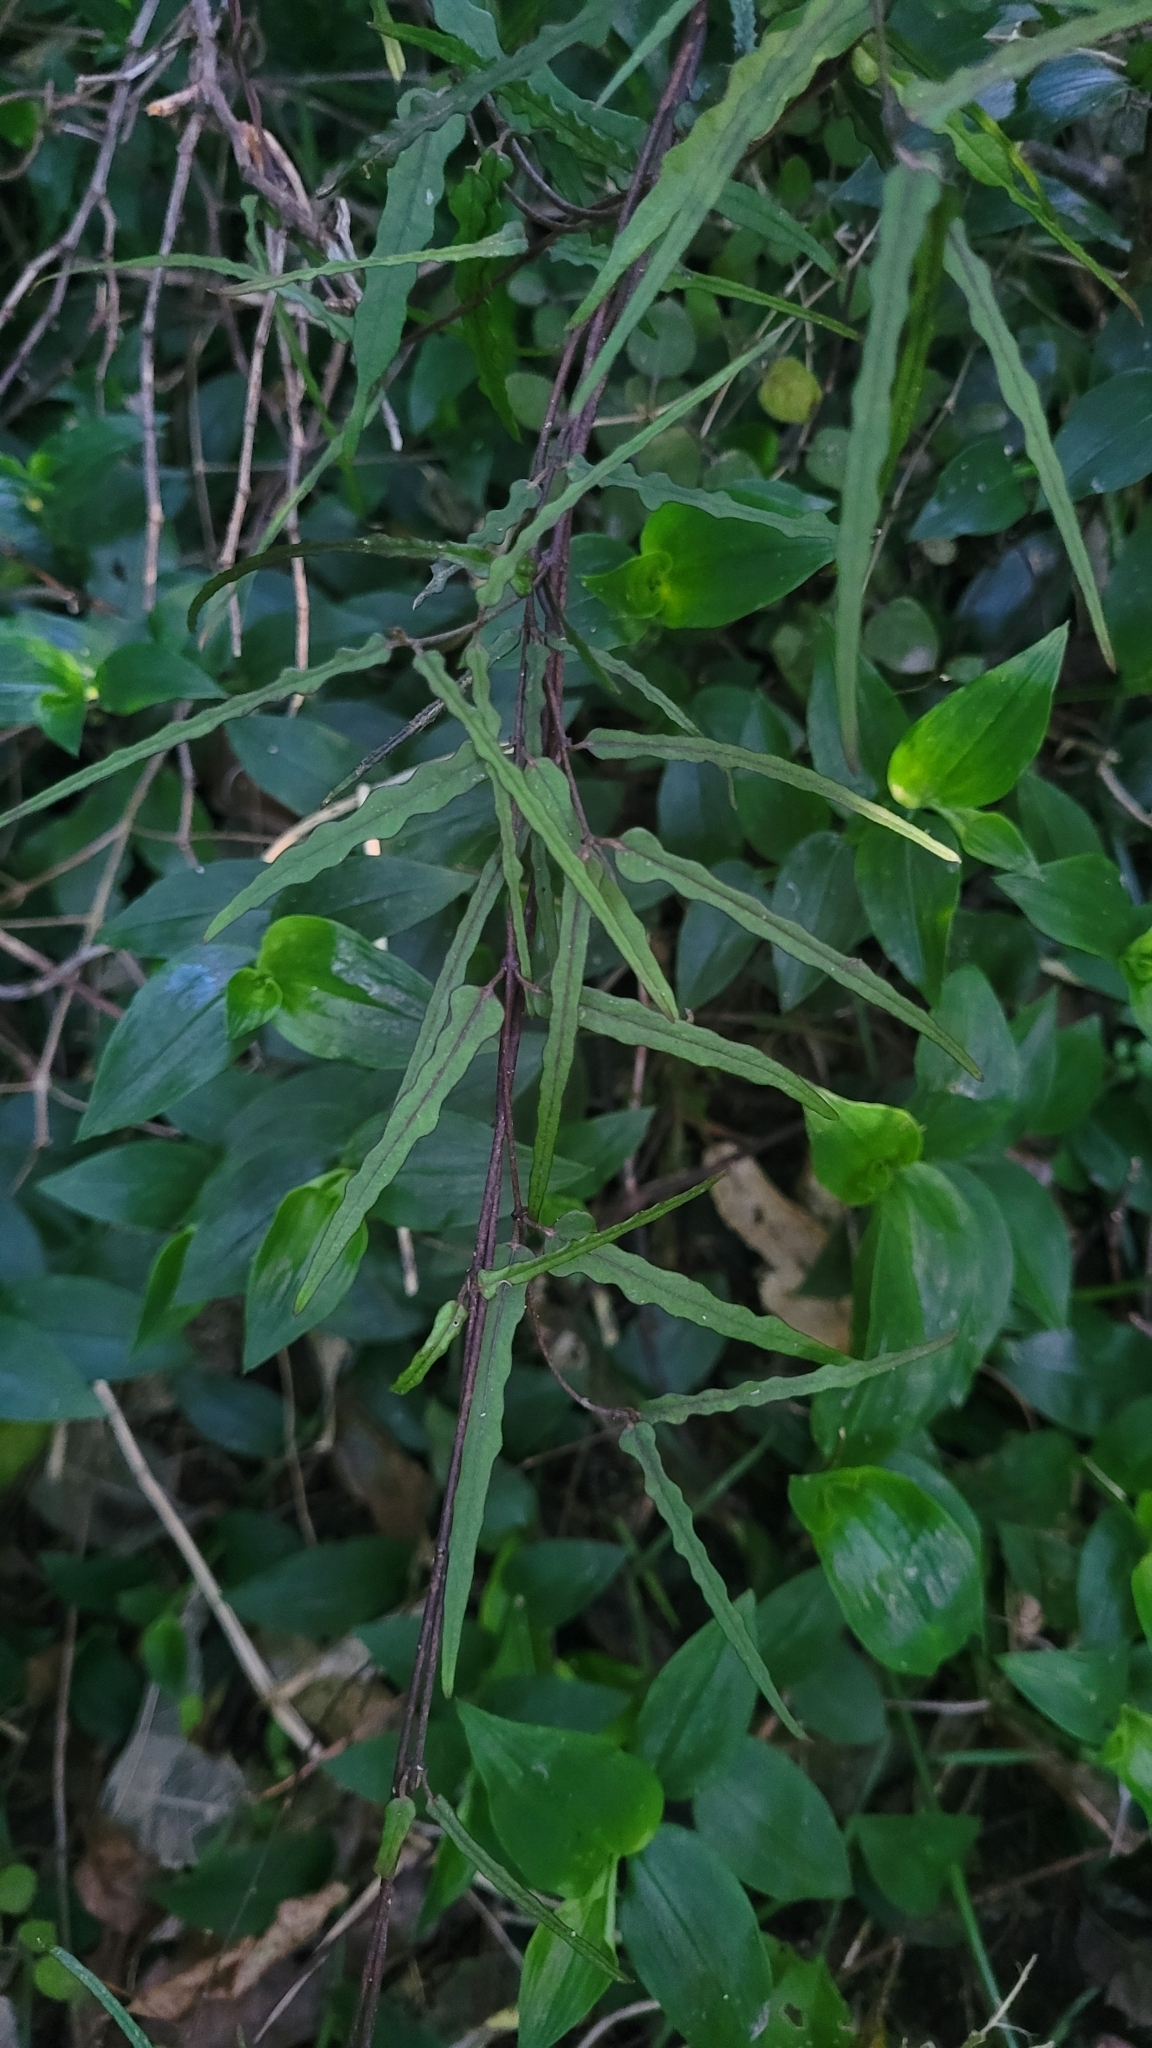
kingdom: Plantae
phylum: Tracheophyta
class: Magnoliopsida
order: Gentianales
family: Apocynaceae
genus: Parsonsia
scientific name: Parsonsia capsularis
